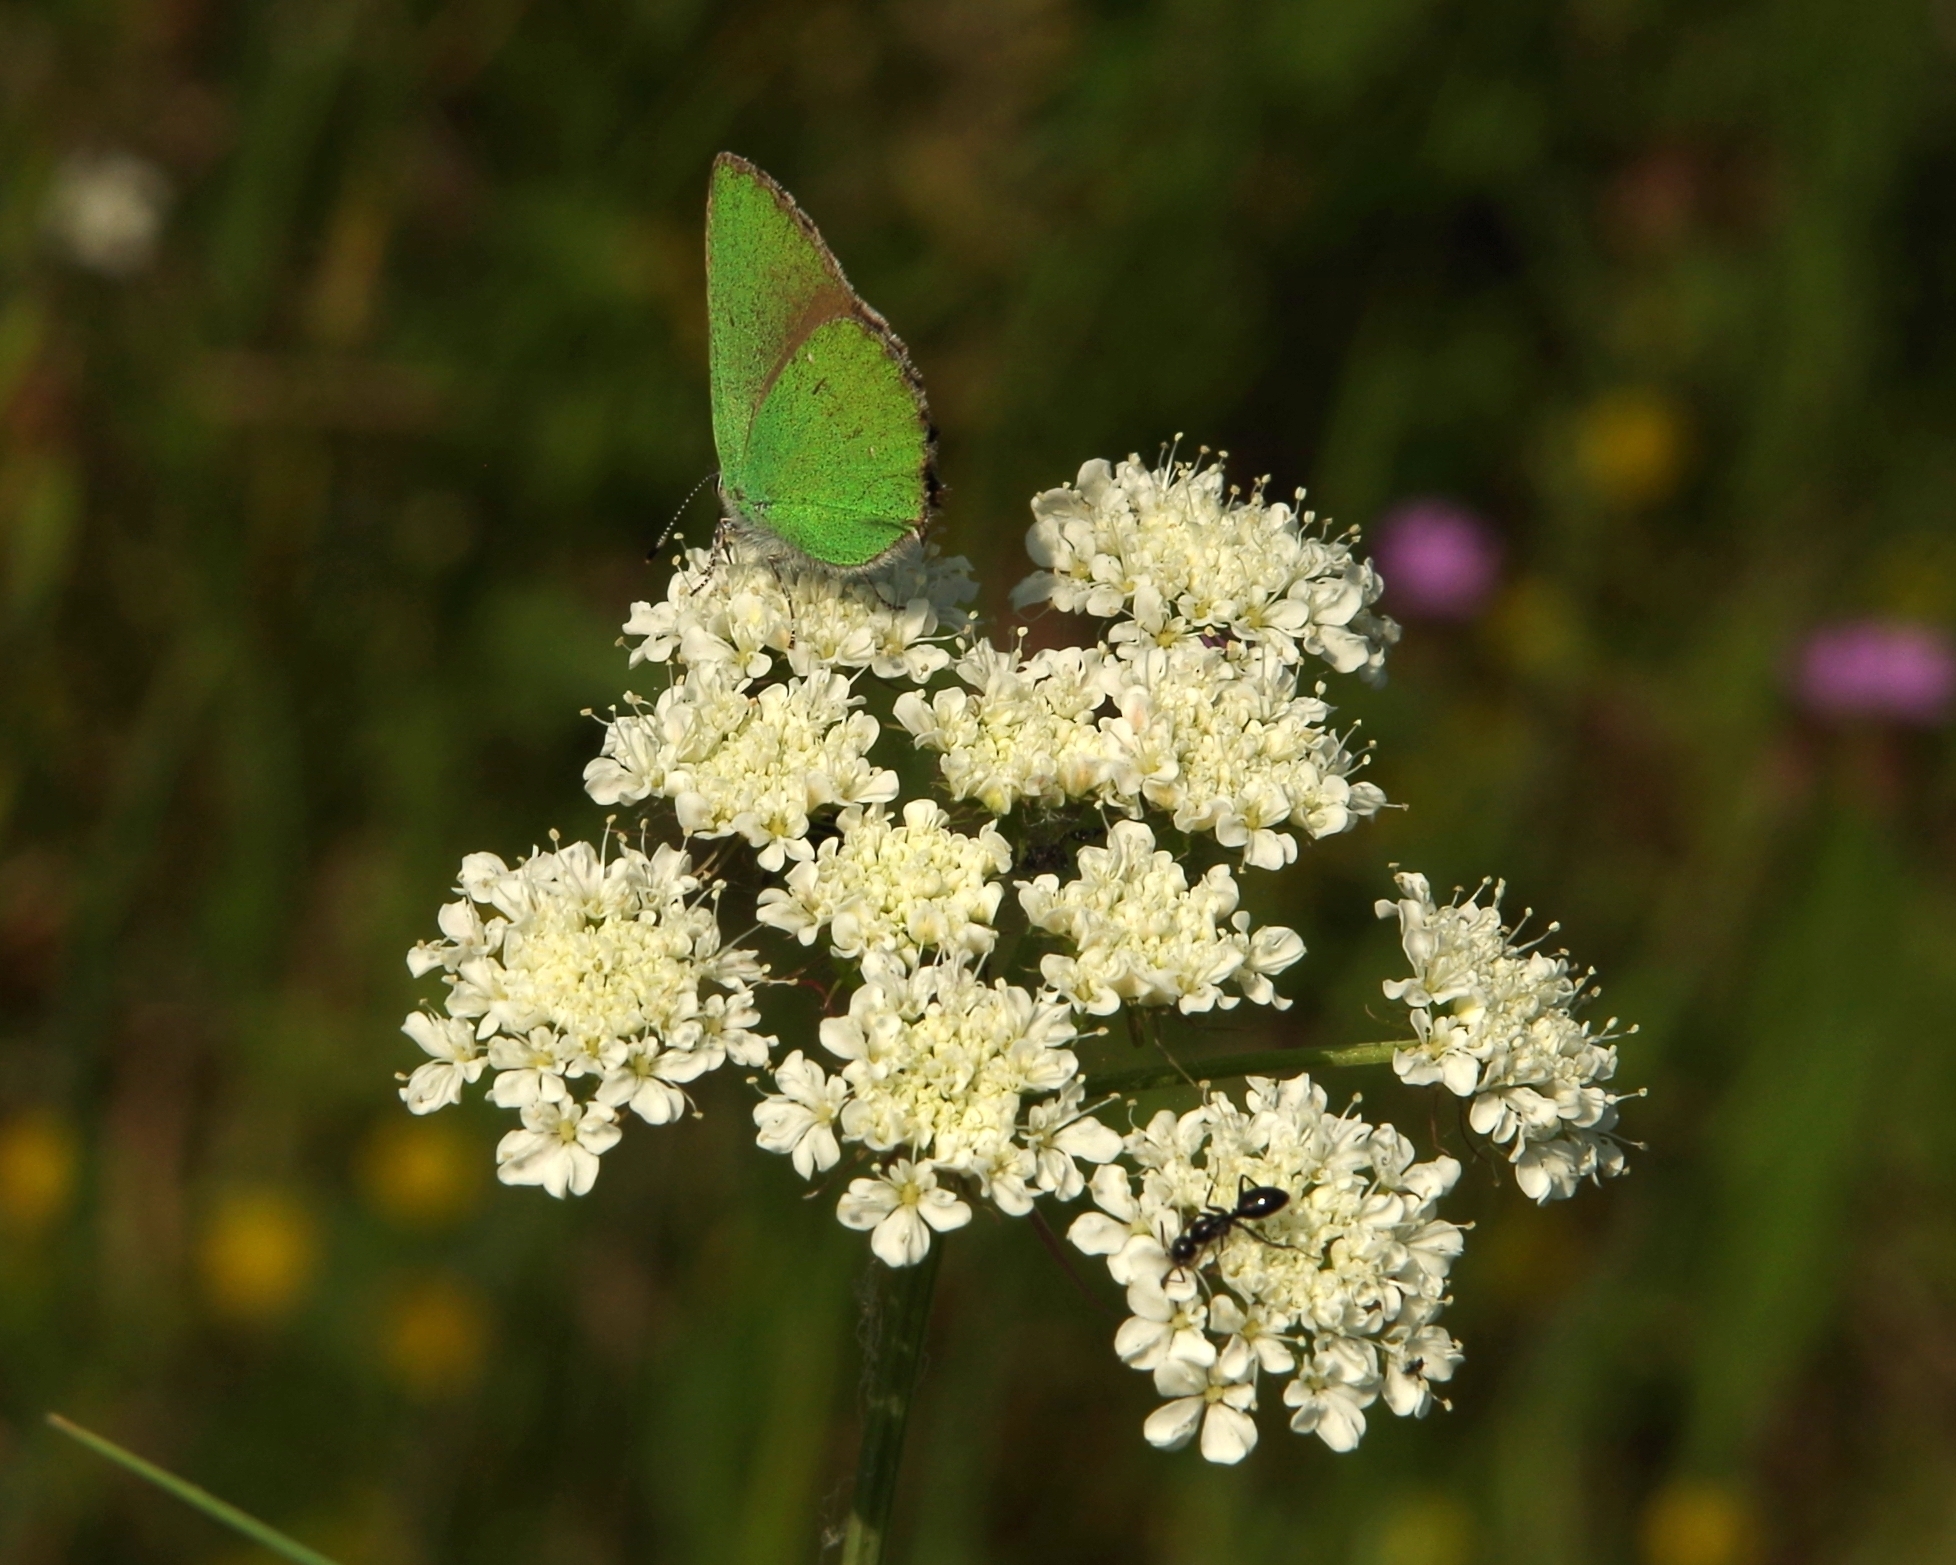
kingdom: Animalia
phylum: Arthropoda
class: Insecta
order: Lepidoptera
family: Lycaenidae
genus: Callophrys
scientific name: Callophrys rubi
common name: Green hairstreak
